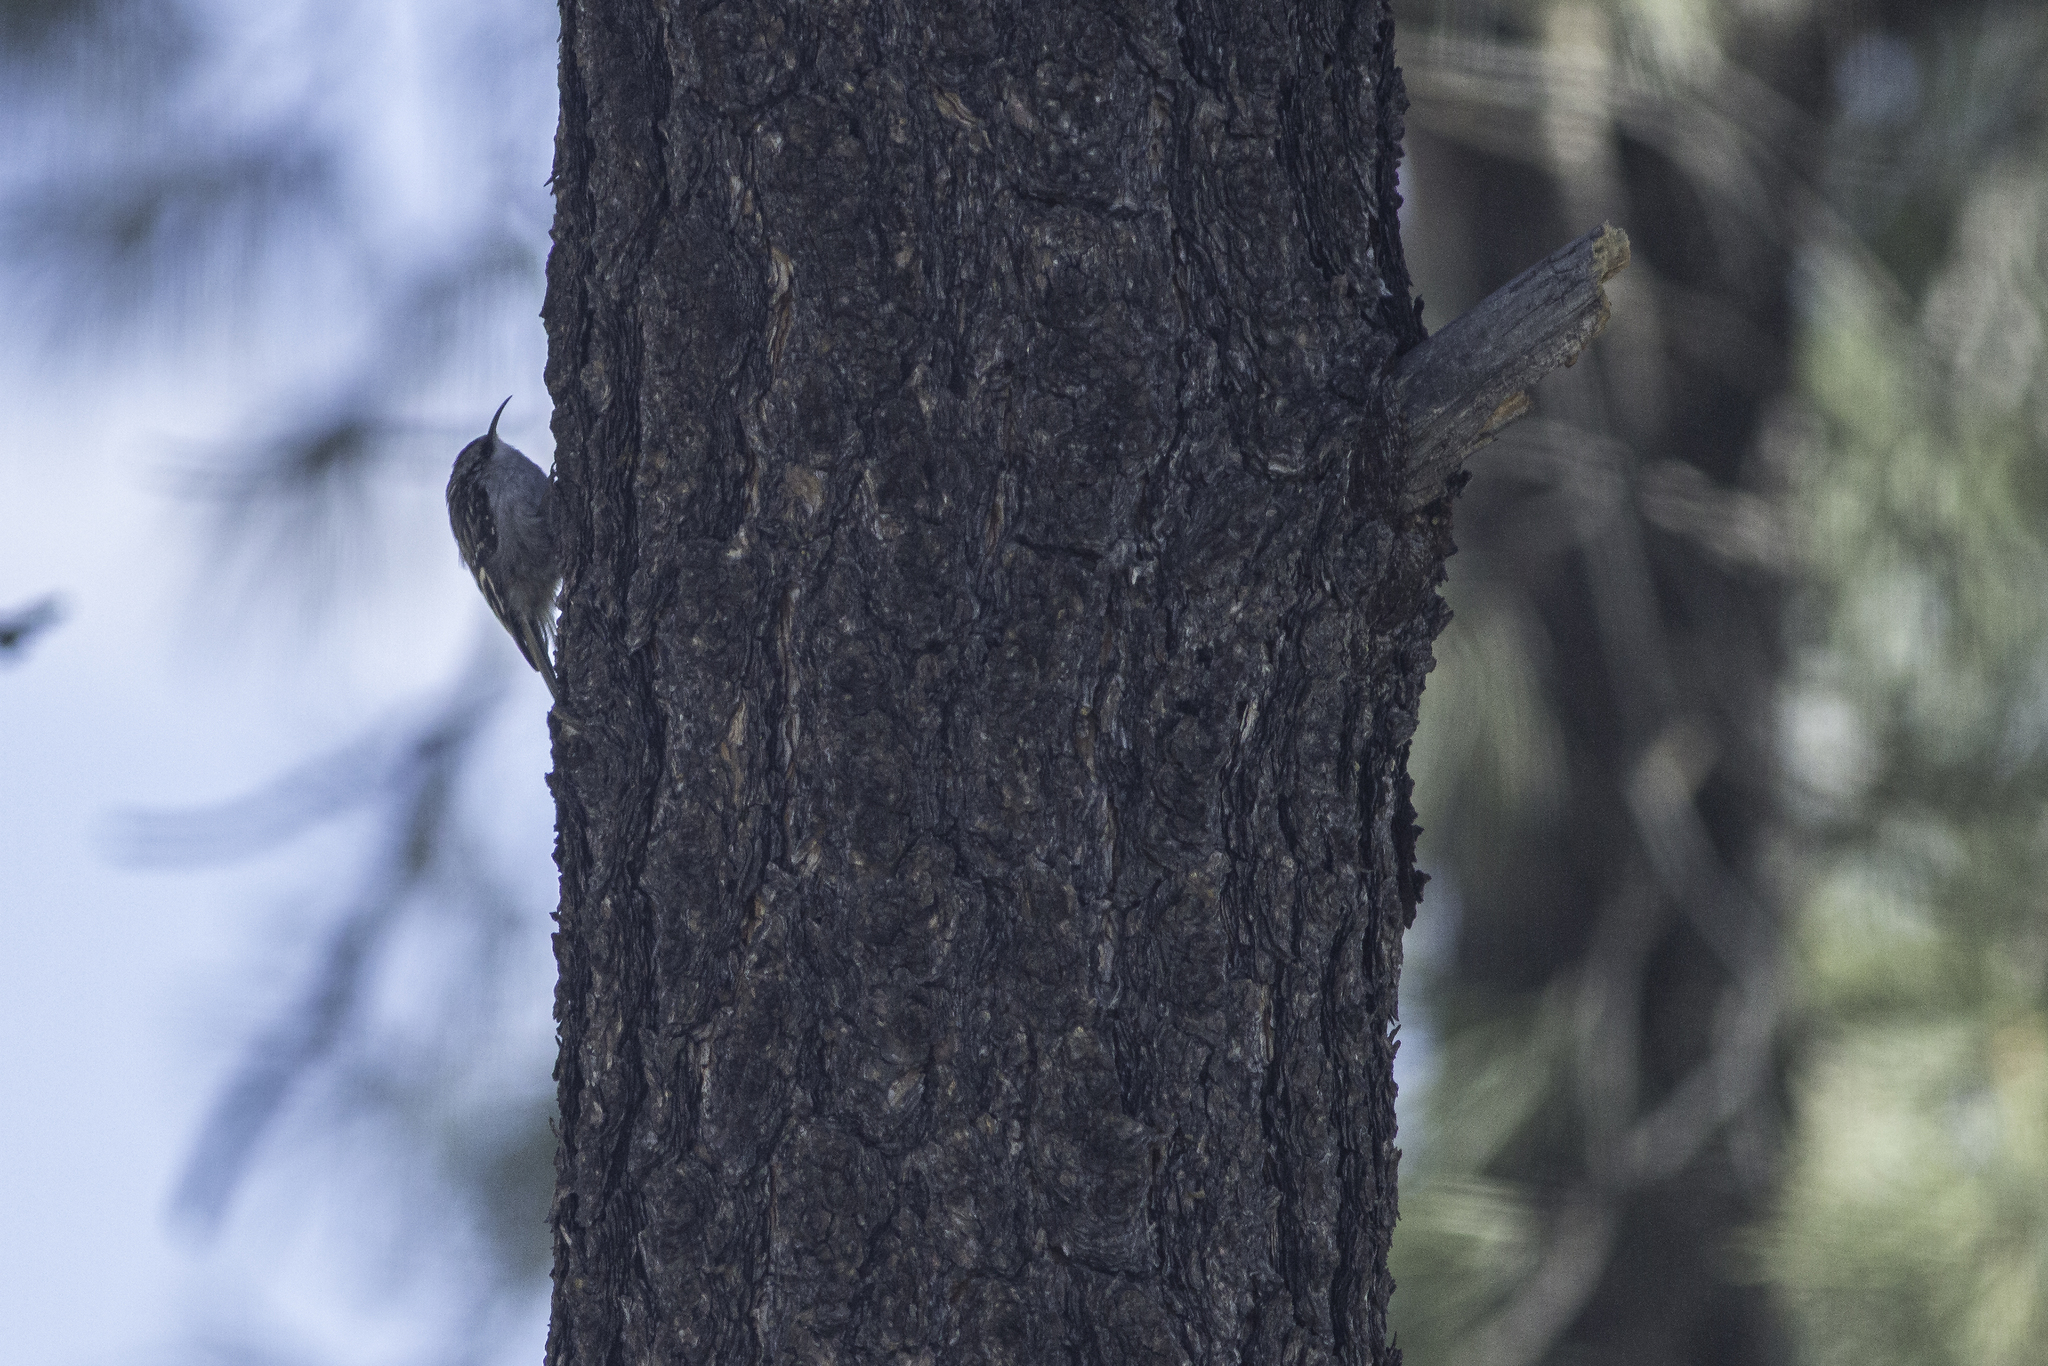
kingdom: Animalia
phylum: Chordata
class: Aves
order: Passeriformes
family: Certhiidae
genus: Certhia
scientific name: Certhia americana
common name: Brown creeper
